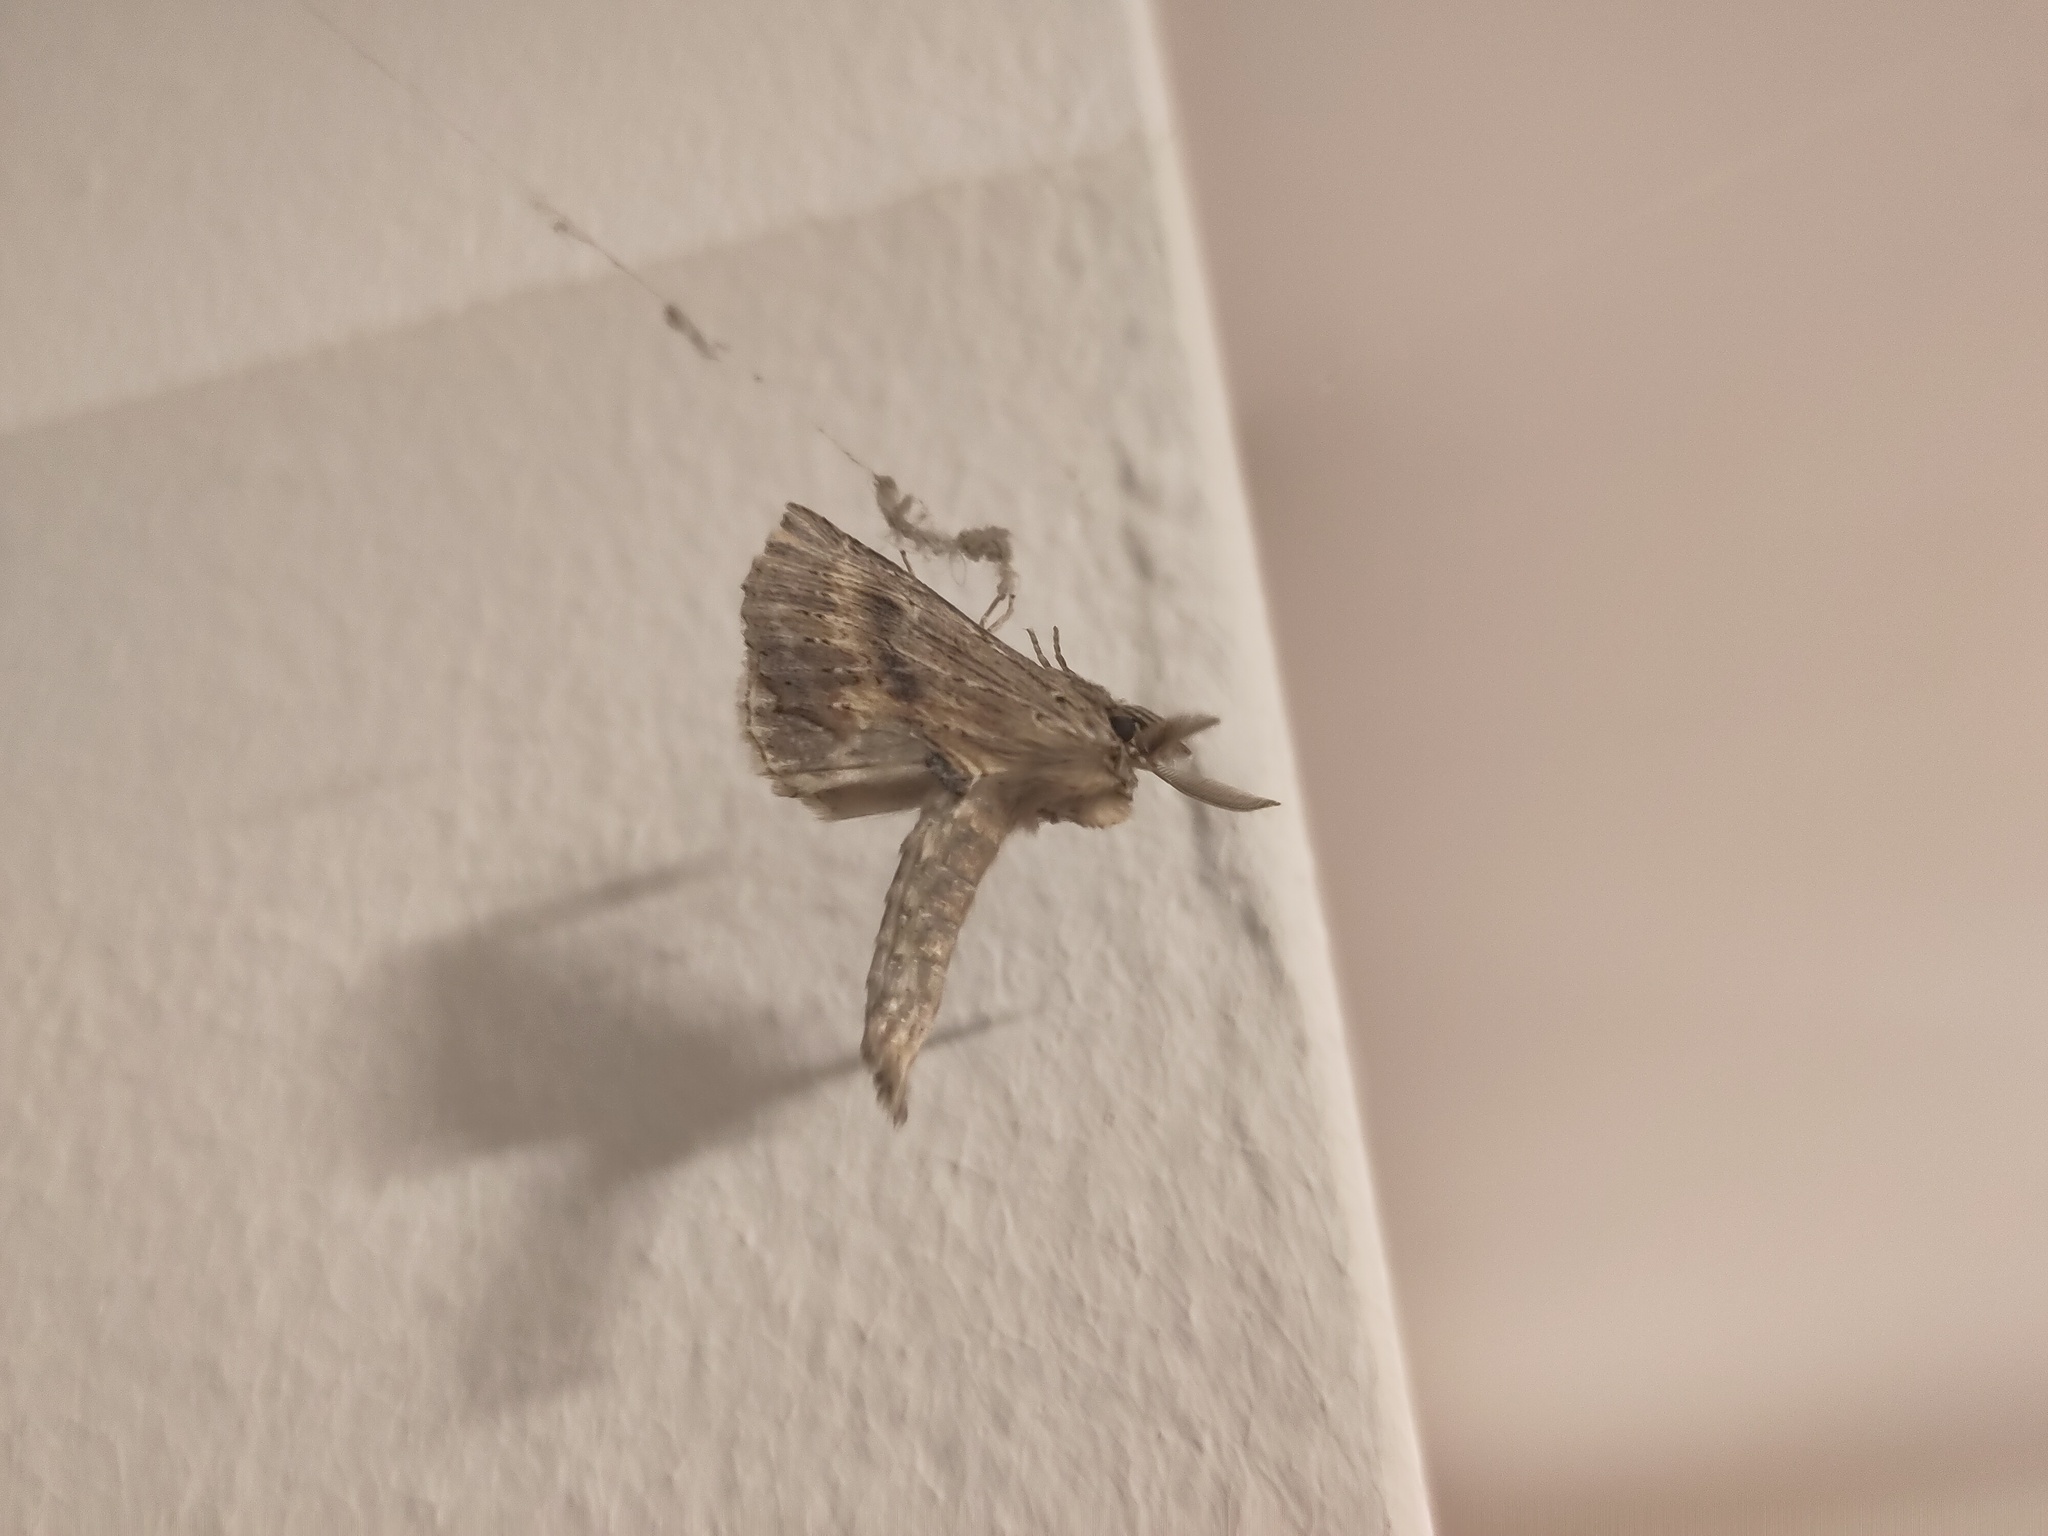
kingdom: Animalia
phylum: Arthropoda
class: Insecta
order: Lepidoptera
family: Notodontidae
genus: Pterostoma
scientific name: Pterostoma palpina
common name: Pale prominent
